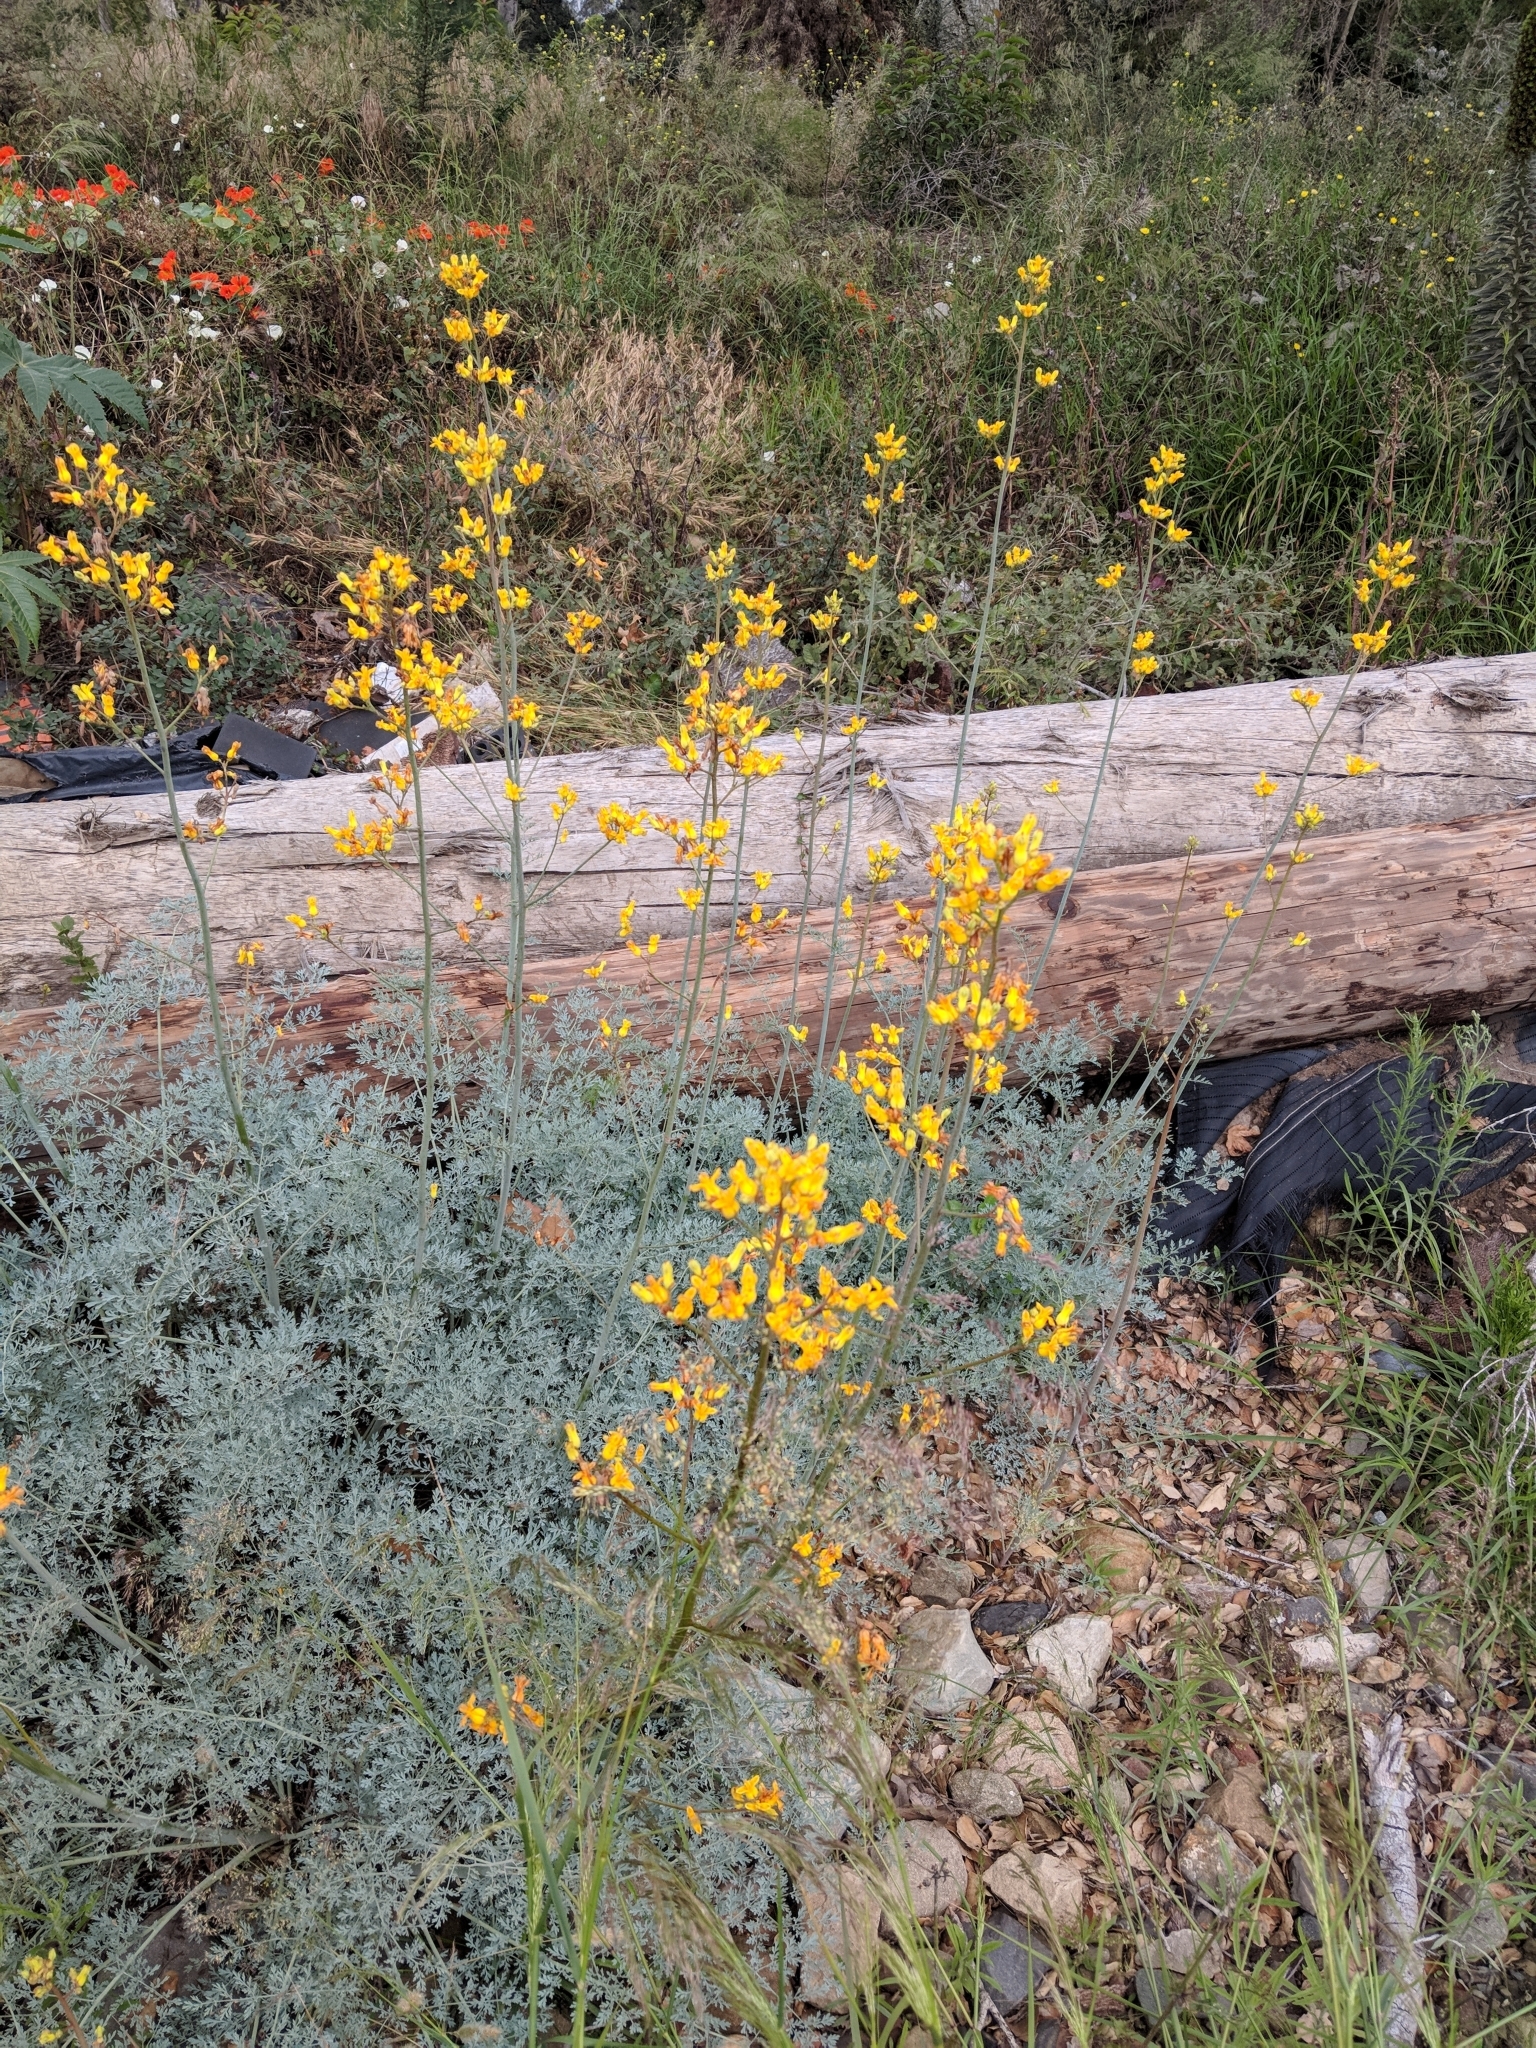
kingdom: Plantae
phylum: Tracheophyta
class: Magnoliopsida
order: Ranunculales
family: Papaveraceae
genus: Ehrendorferia
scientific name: Ehrendorferia chrysantha
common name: Golden eardrops
